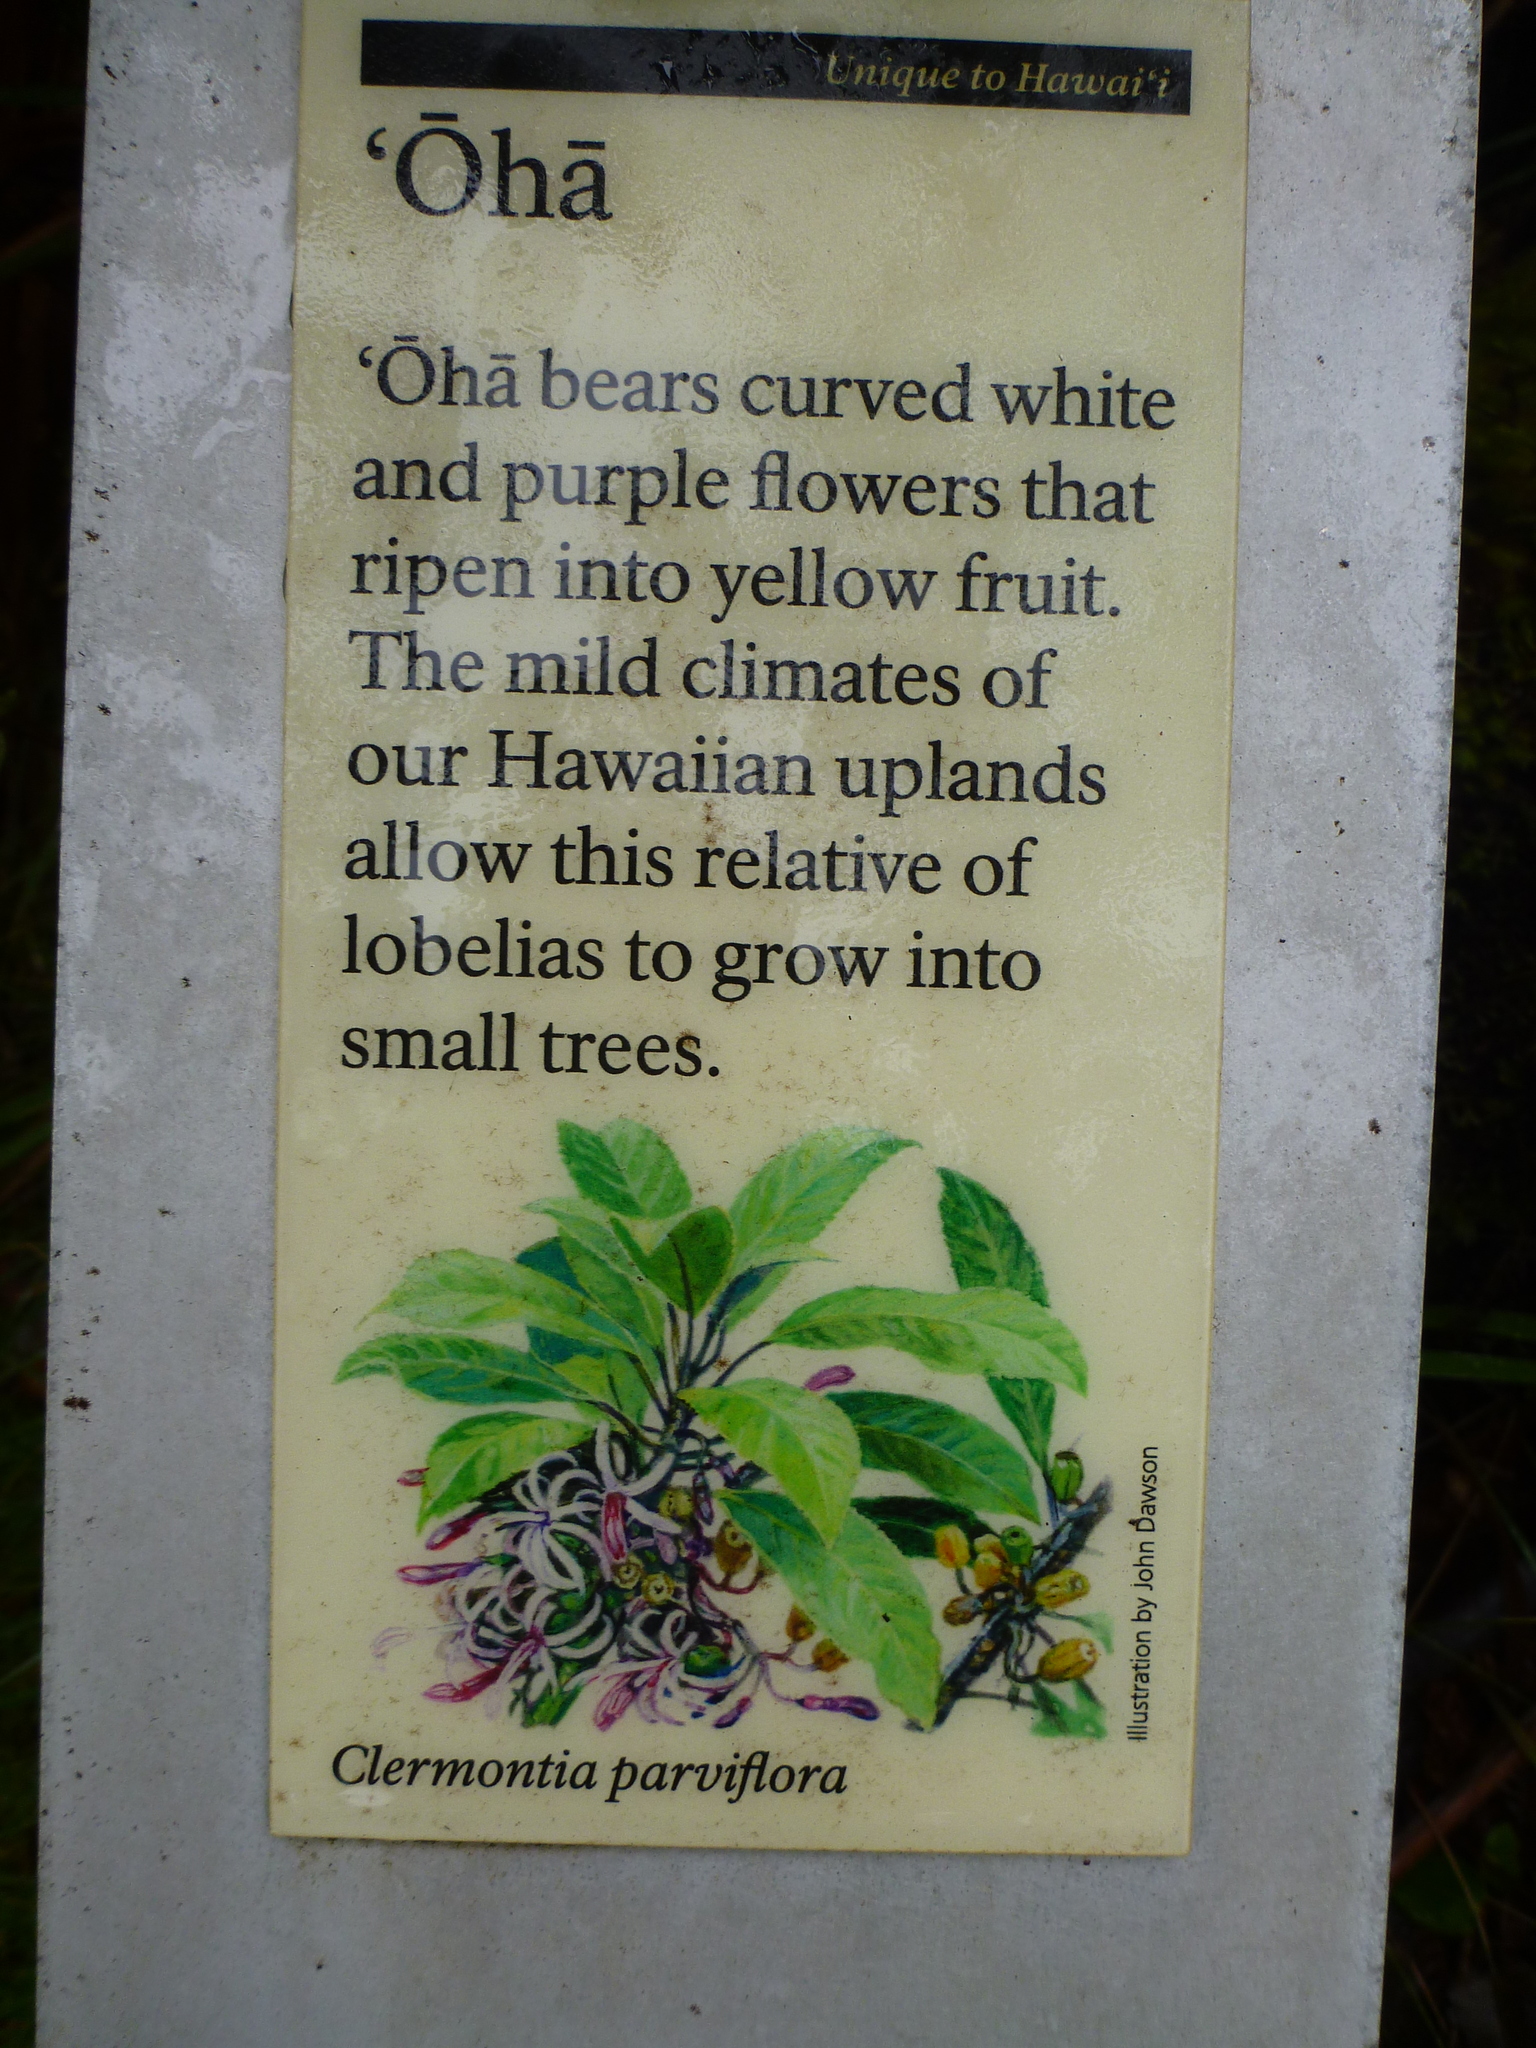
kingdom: Plantae
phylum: Tracheophyta
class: Magnoliopsida
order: Asterales
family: Campanulaceae
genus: Clermontia
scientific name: Clermontia parviflora
